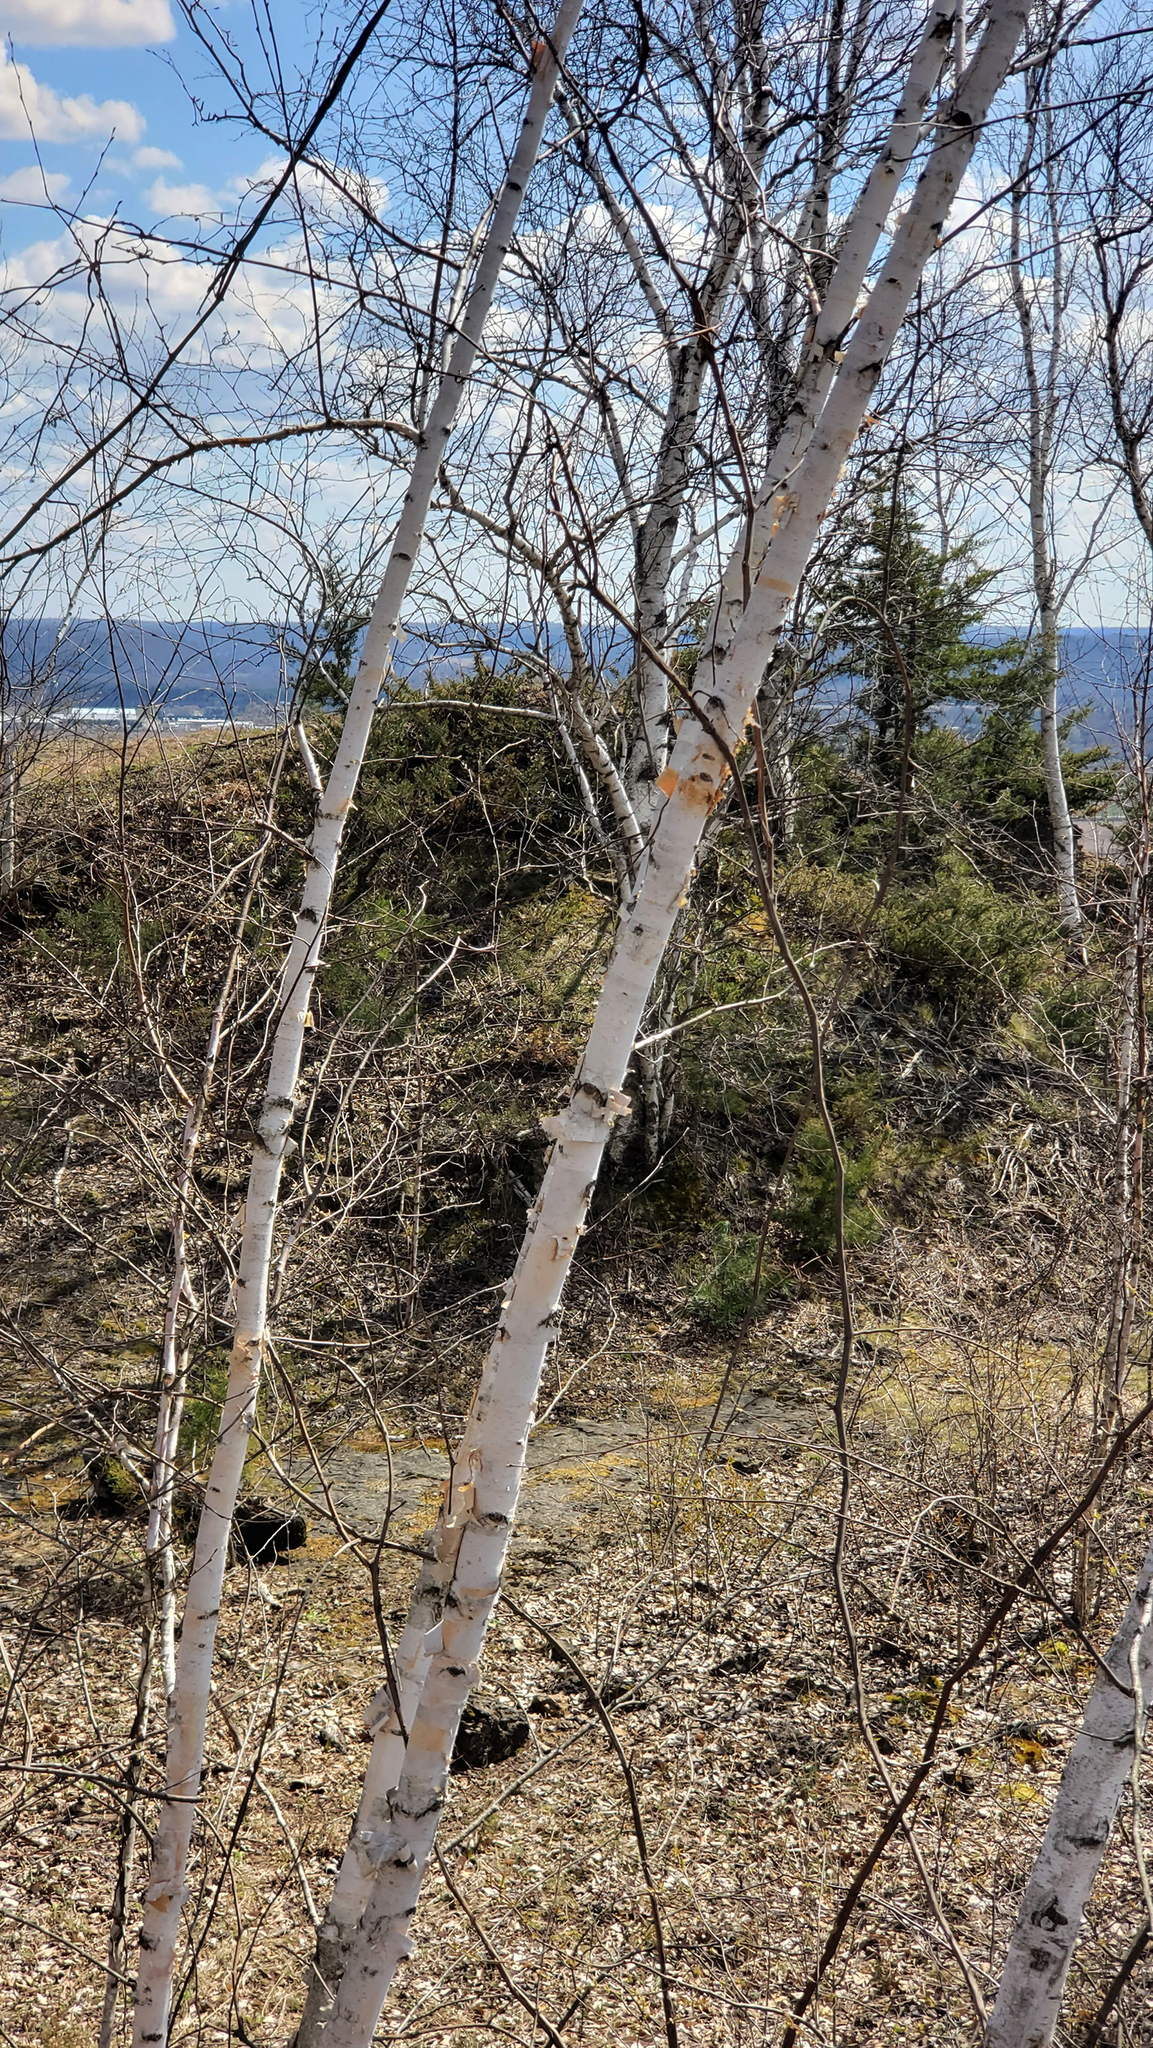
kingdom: Plantae
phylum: Tracheophyta
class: Magnoliopsida
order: Fagales
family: Betulaceae
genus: Betula
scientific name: Betula papyrifera
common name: Paper birch
